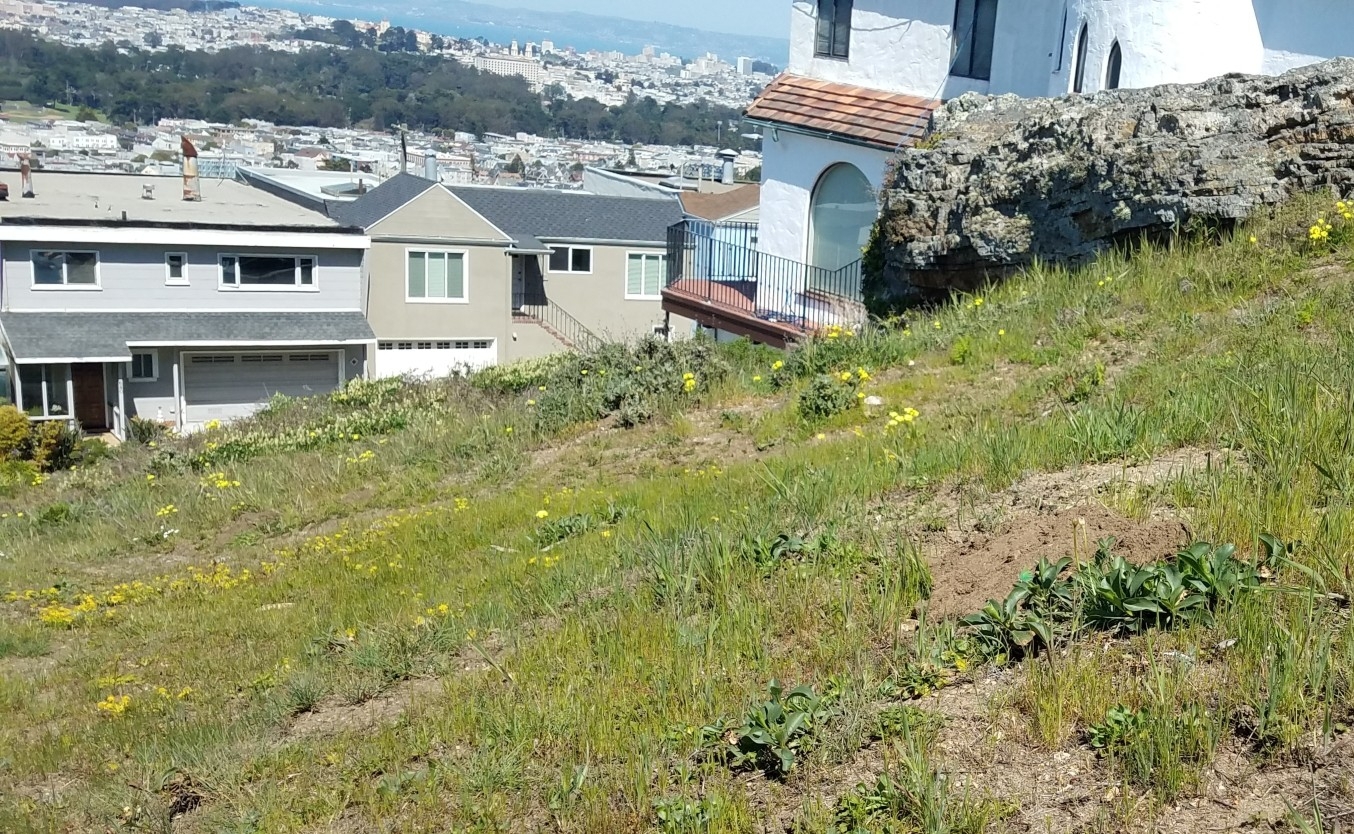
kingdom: Animalia
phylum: Arthropoda
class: Insecta
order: Lepidoptera
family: Lycaenidae
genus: Callophrys
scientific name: Callophrys viridis
